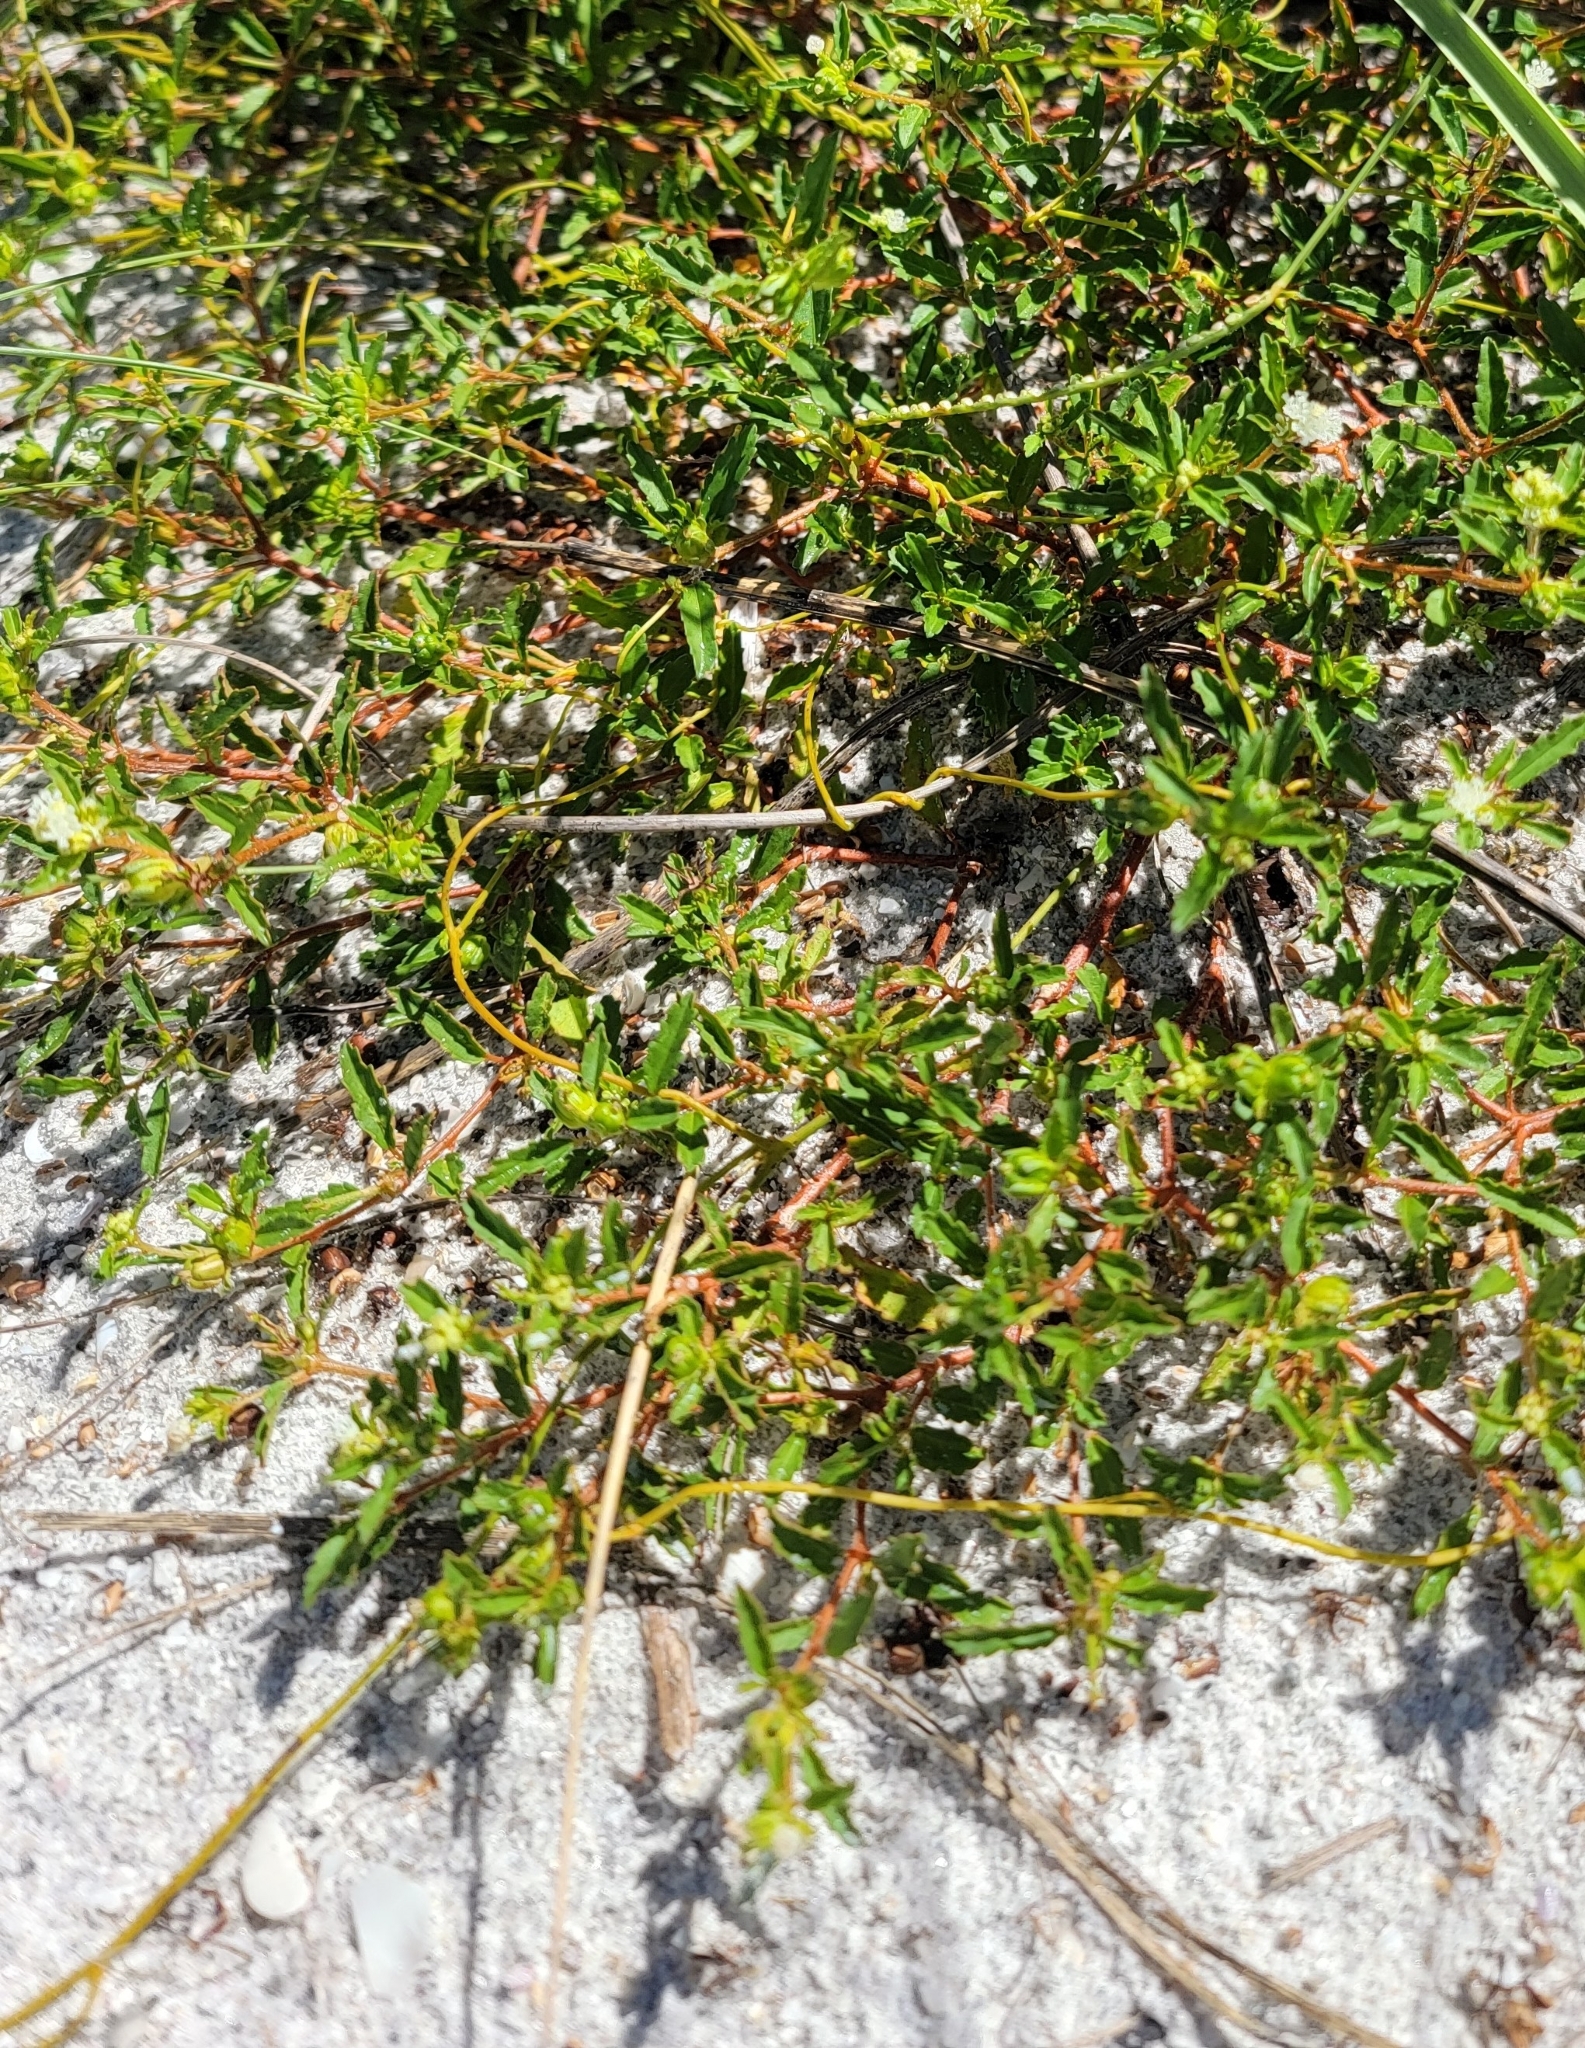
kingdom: Plantae
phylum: Tracheophyta
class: Magnoliopsida
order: Malpighiales
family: Euphorbiaceae
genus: Croton
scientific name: Croton glandulosus
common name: Tropic croton
